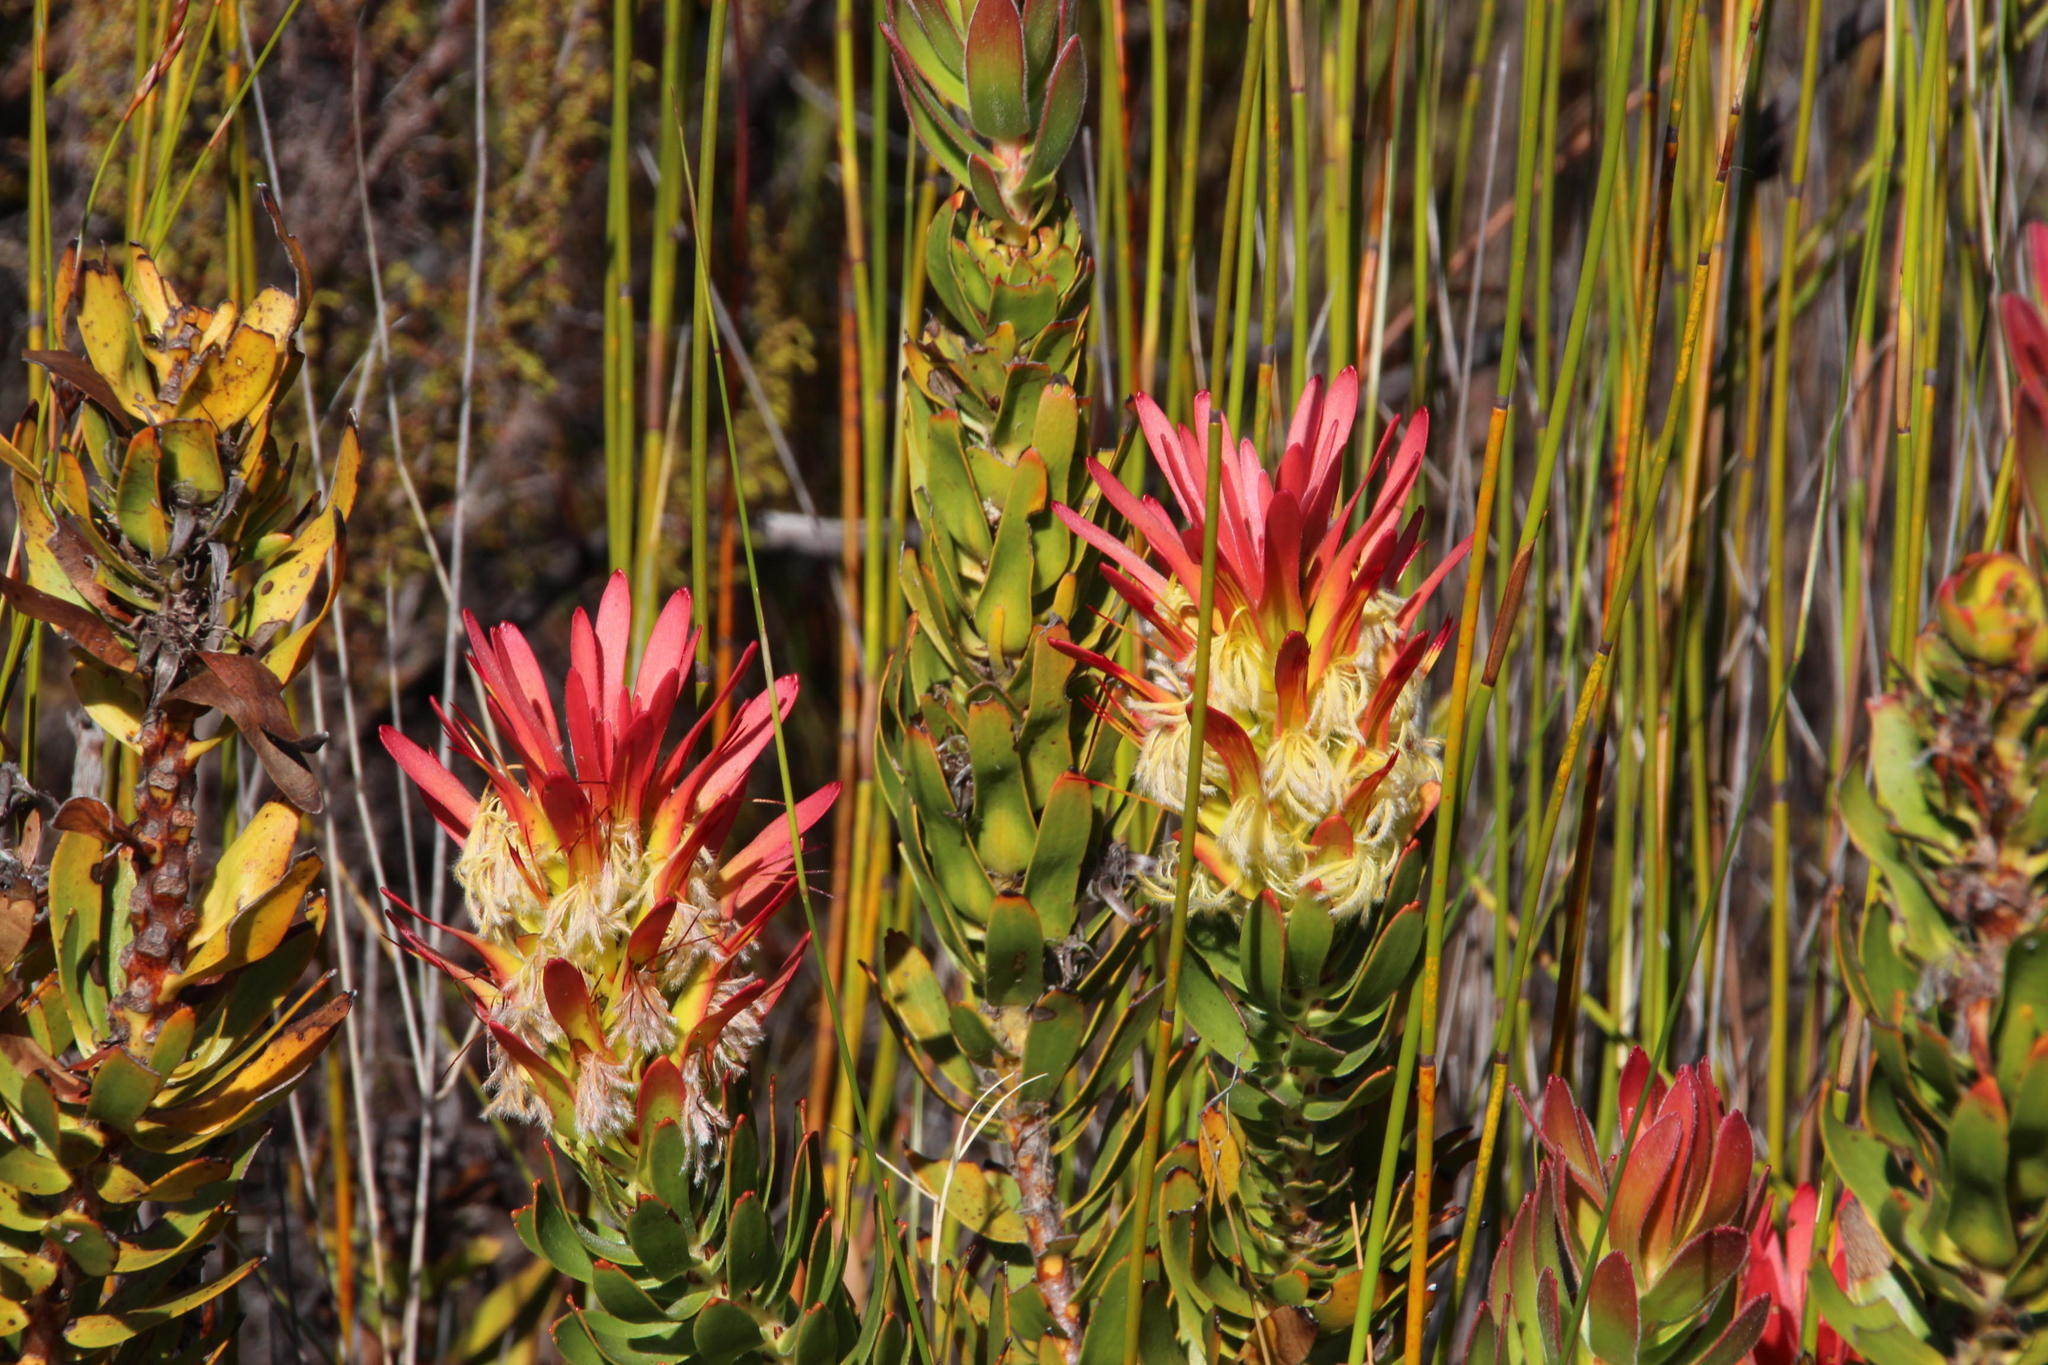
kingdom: Plantae
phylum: Tracheophyta
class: Magnoliopsida
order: Proteales
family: Proteaceae
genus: Mimetes
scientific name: Mimetes cucullatus
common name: Common pagoda
